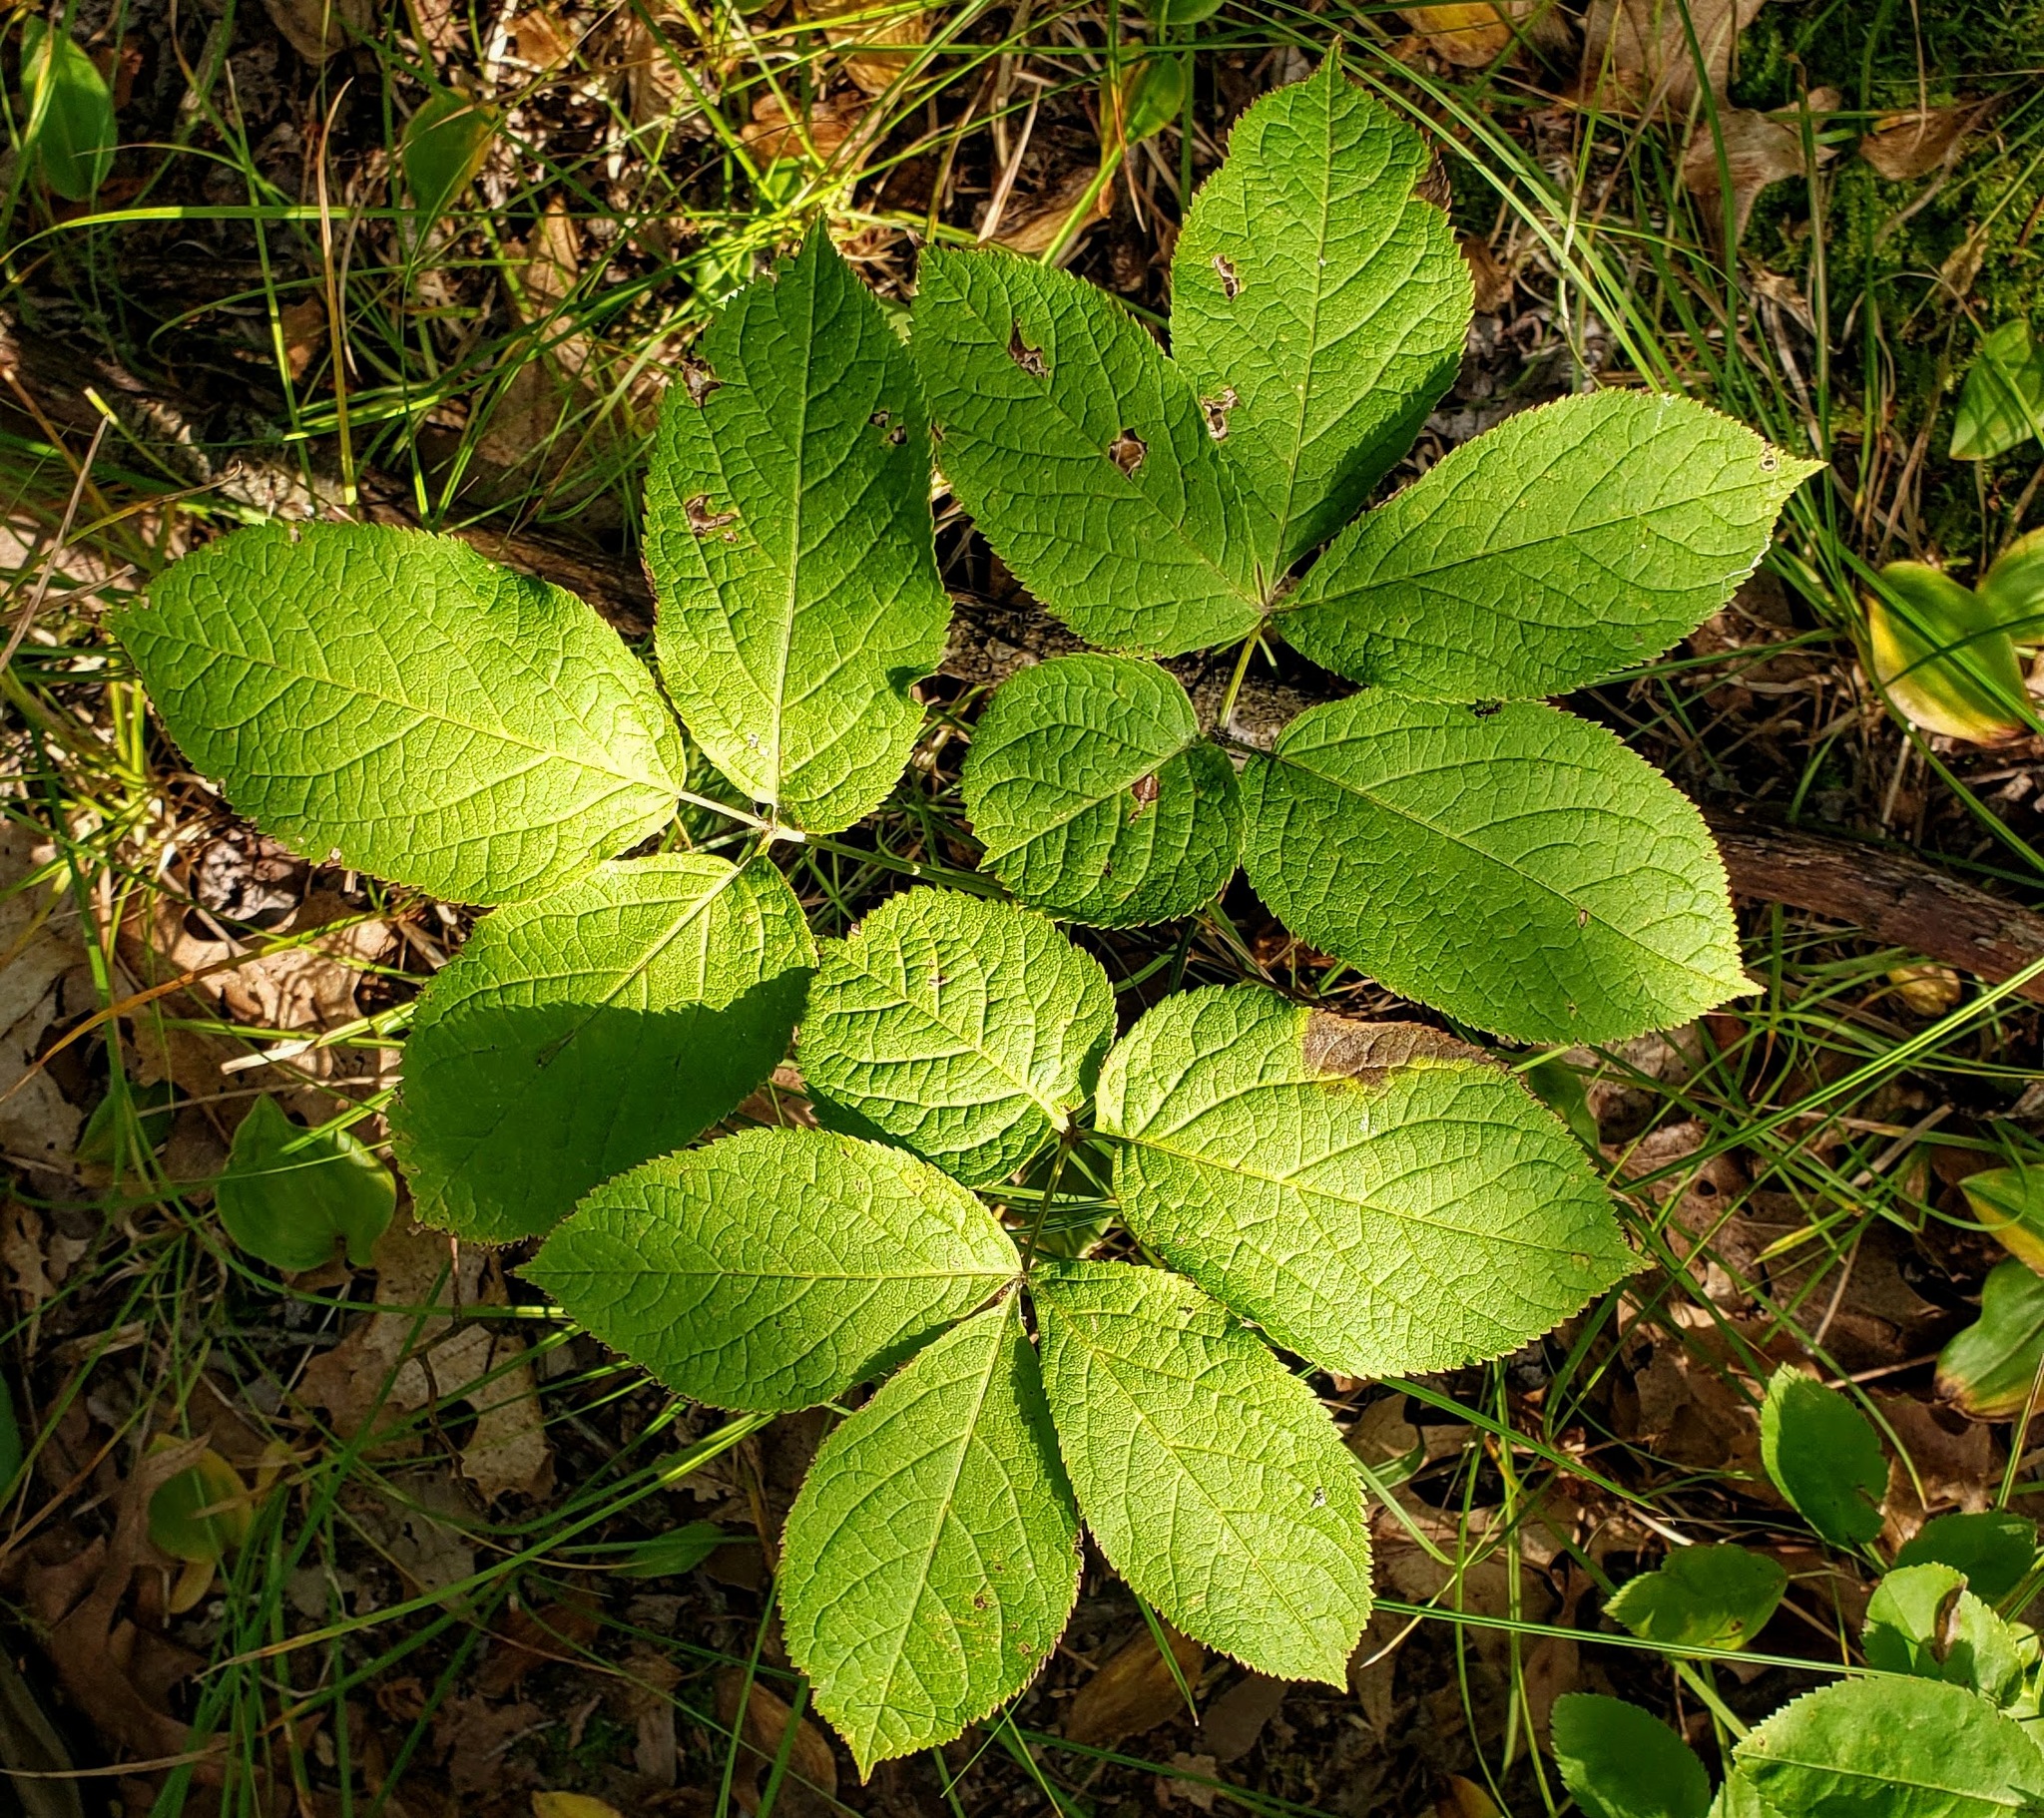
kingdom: Plantae
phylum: Tracheophyta
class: Magnoliopsida
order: Apiales
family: Araliaceae
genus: Aralia
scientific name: Aralia nudicaulis
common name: Wild sarsaparilla
